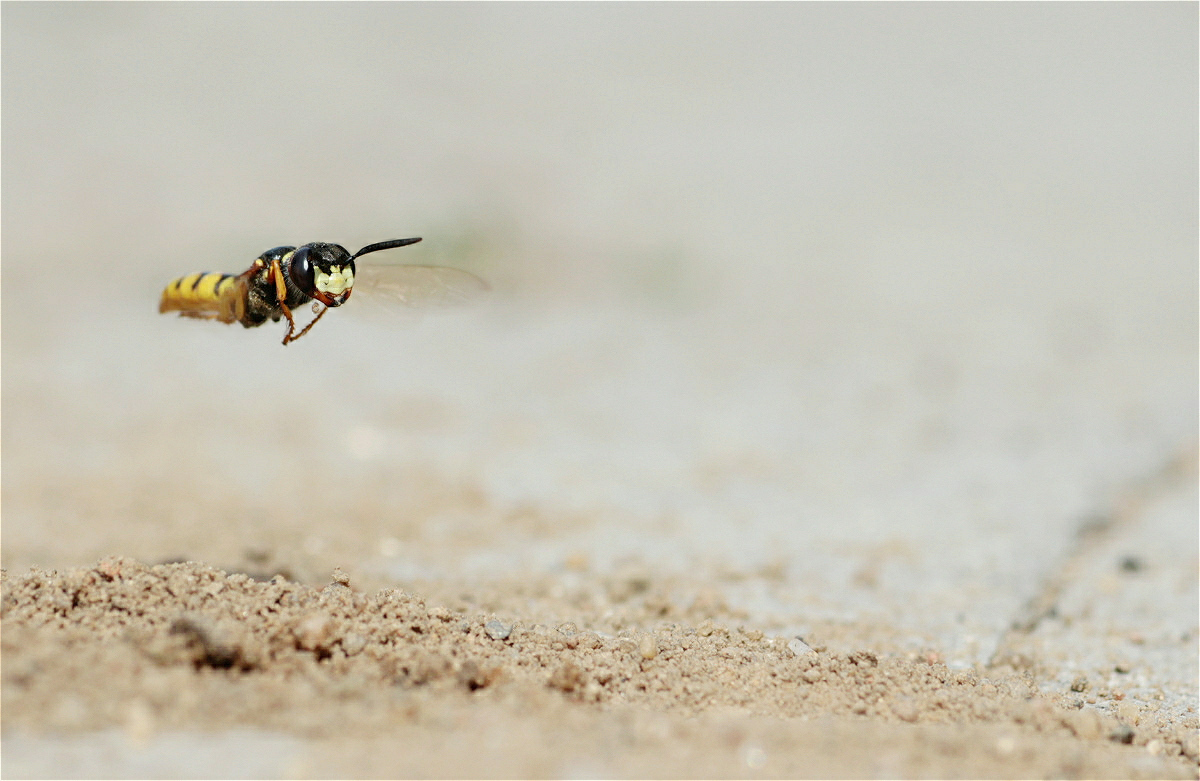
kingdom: Animalia
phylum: Arthropoda
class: Insecta
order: Hymenoptera
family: Crabronidae
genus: Philanthus
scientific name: Philanthus triangulum
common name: Bee wolf
